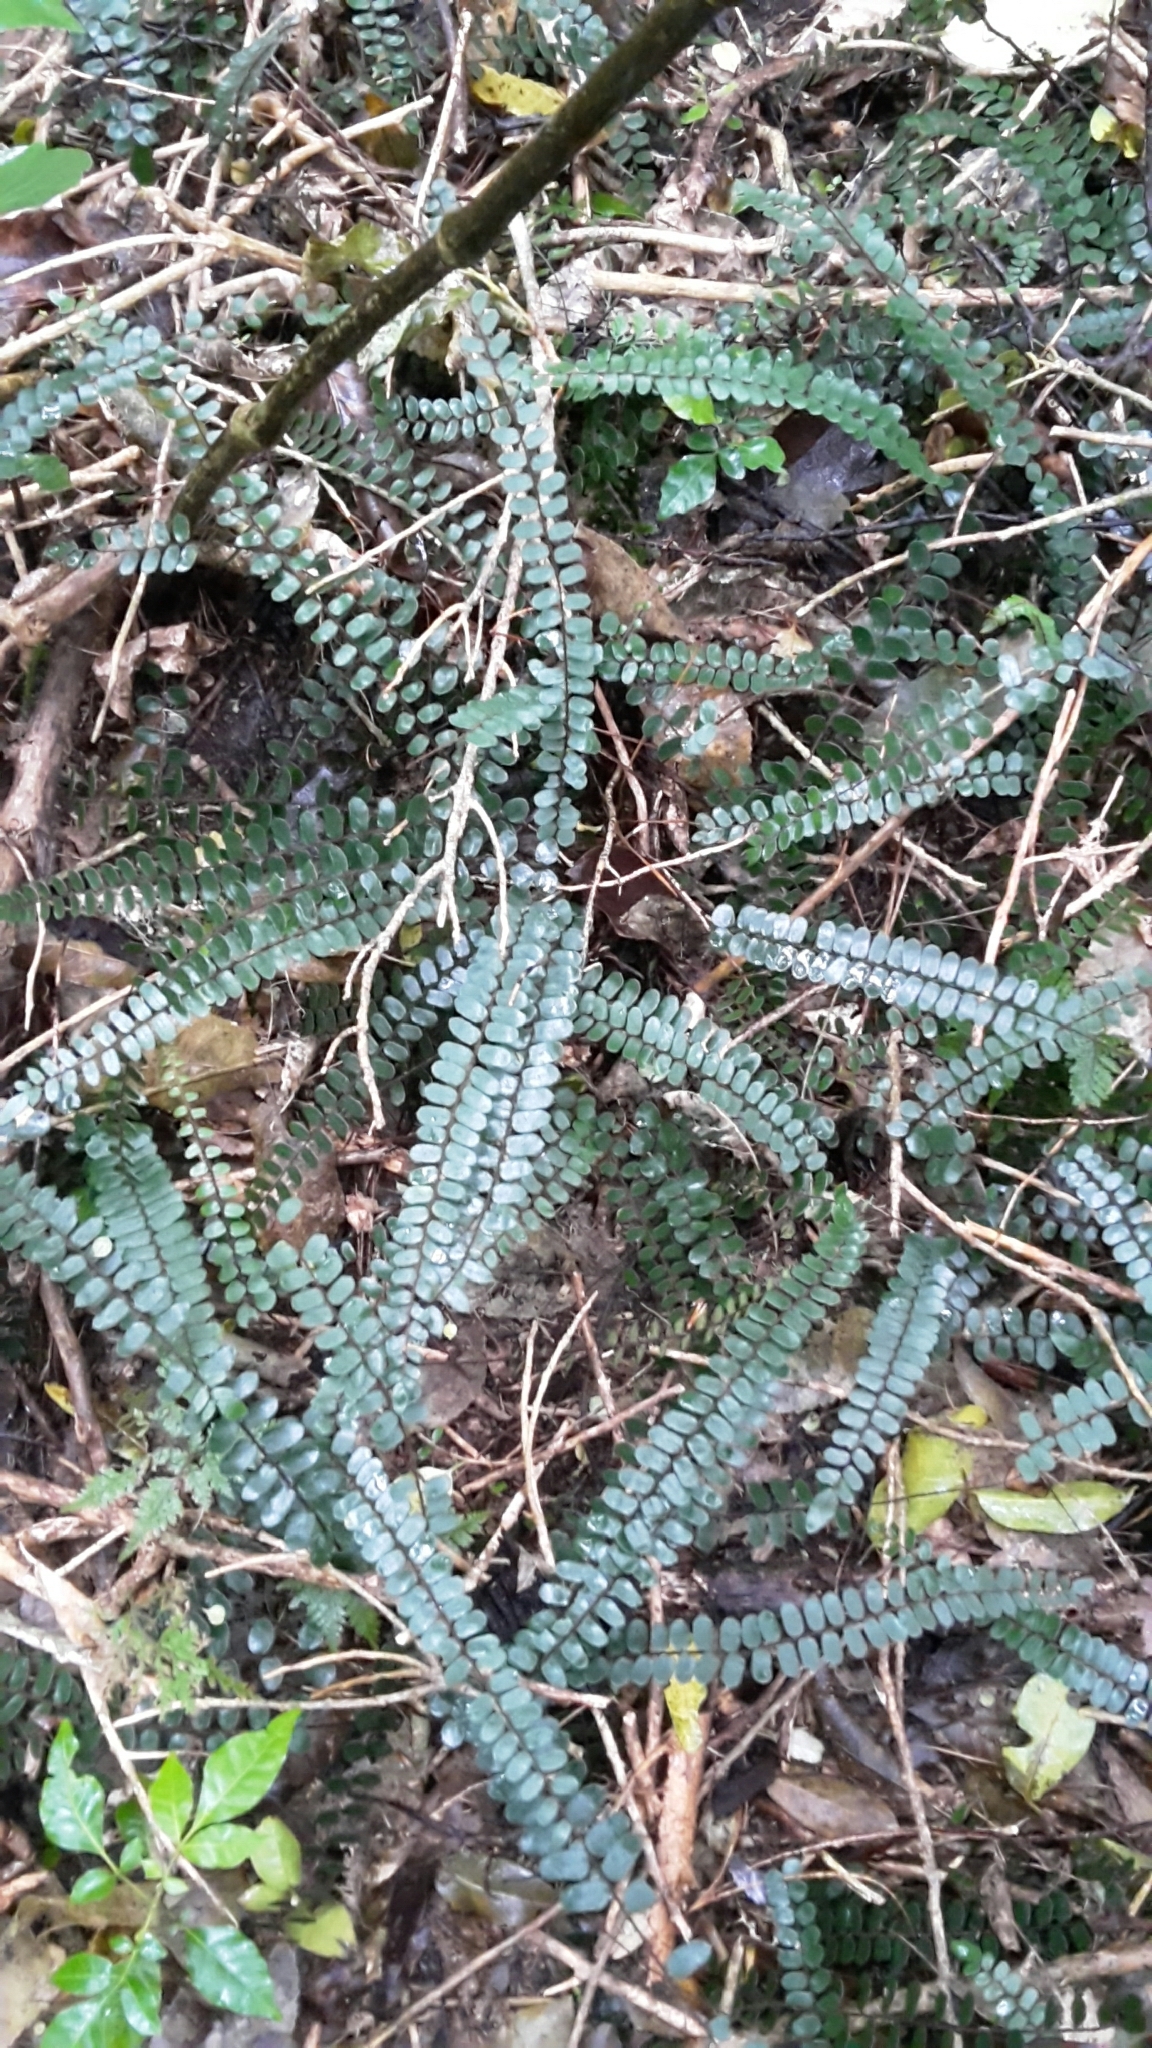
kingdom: Plantae
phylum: Tracheophyta
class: Polypodiopsida
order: Polypodiales
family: Pteridaceae
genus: Pellaea
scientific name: Pellaea rotundifolia
